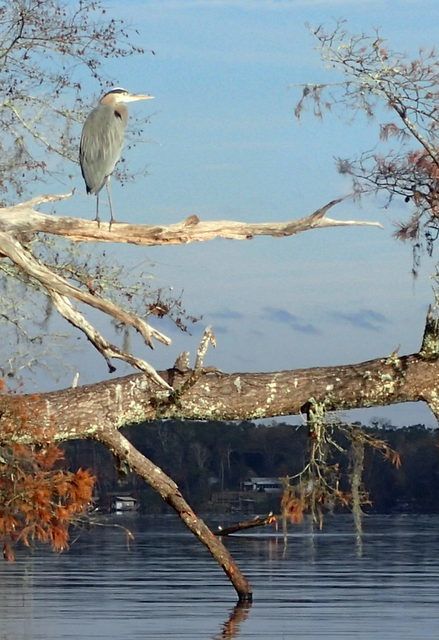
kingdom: Animalia
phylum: Chordata
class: Aves
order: Pelecaniformes
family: Ardeidae
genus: Ardea
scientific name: Ardea herodias
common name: Great blue heron
